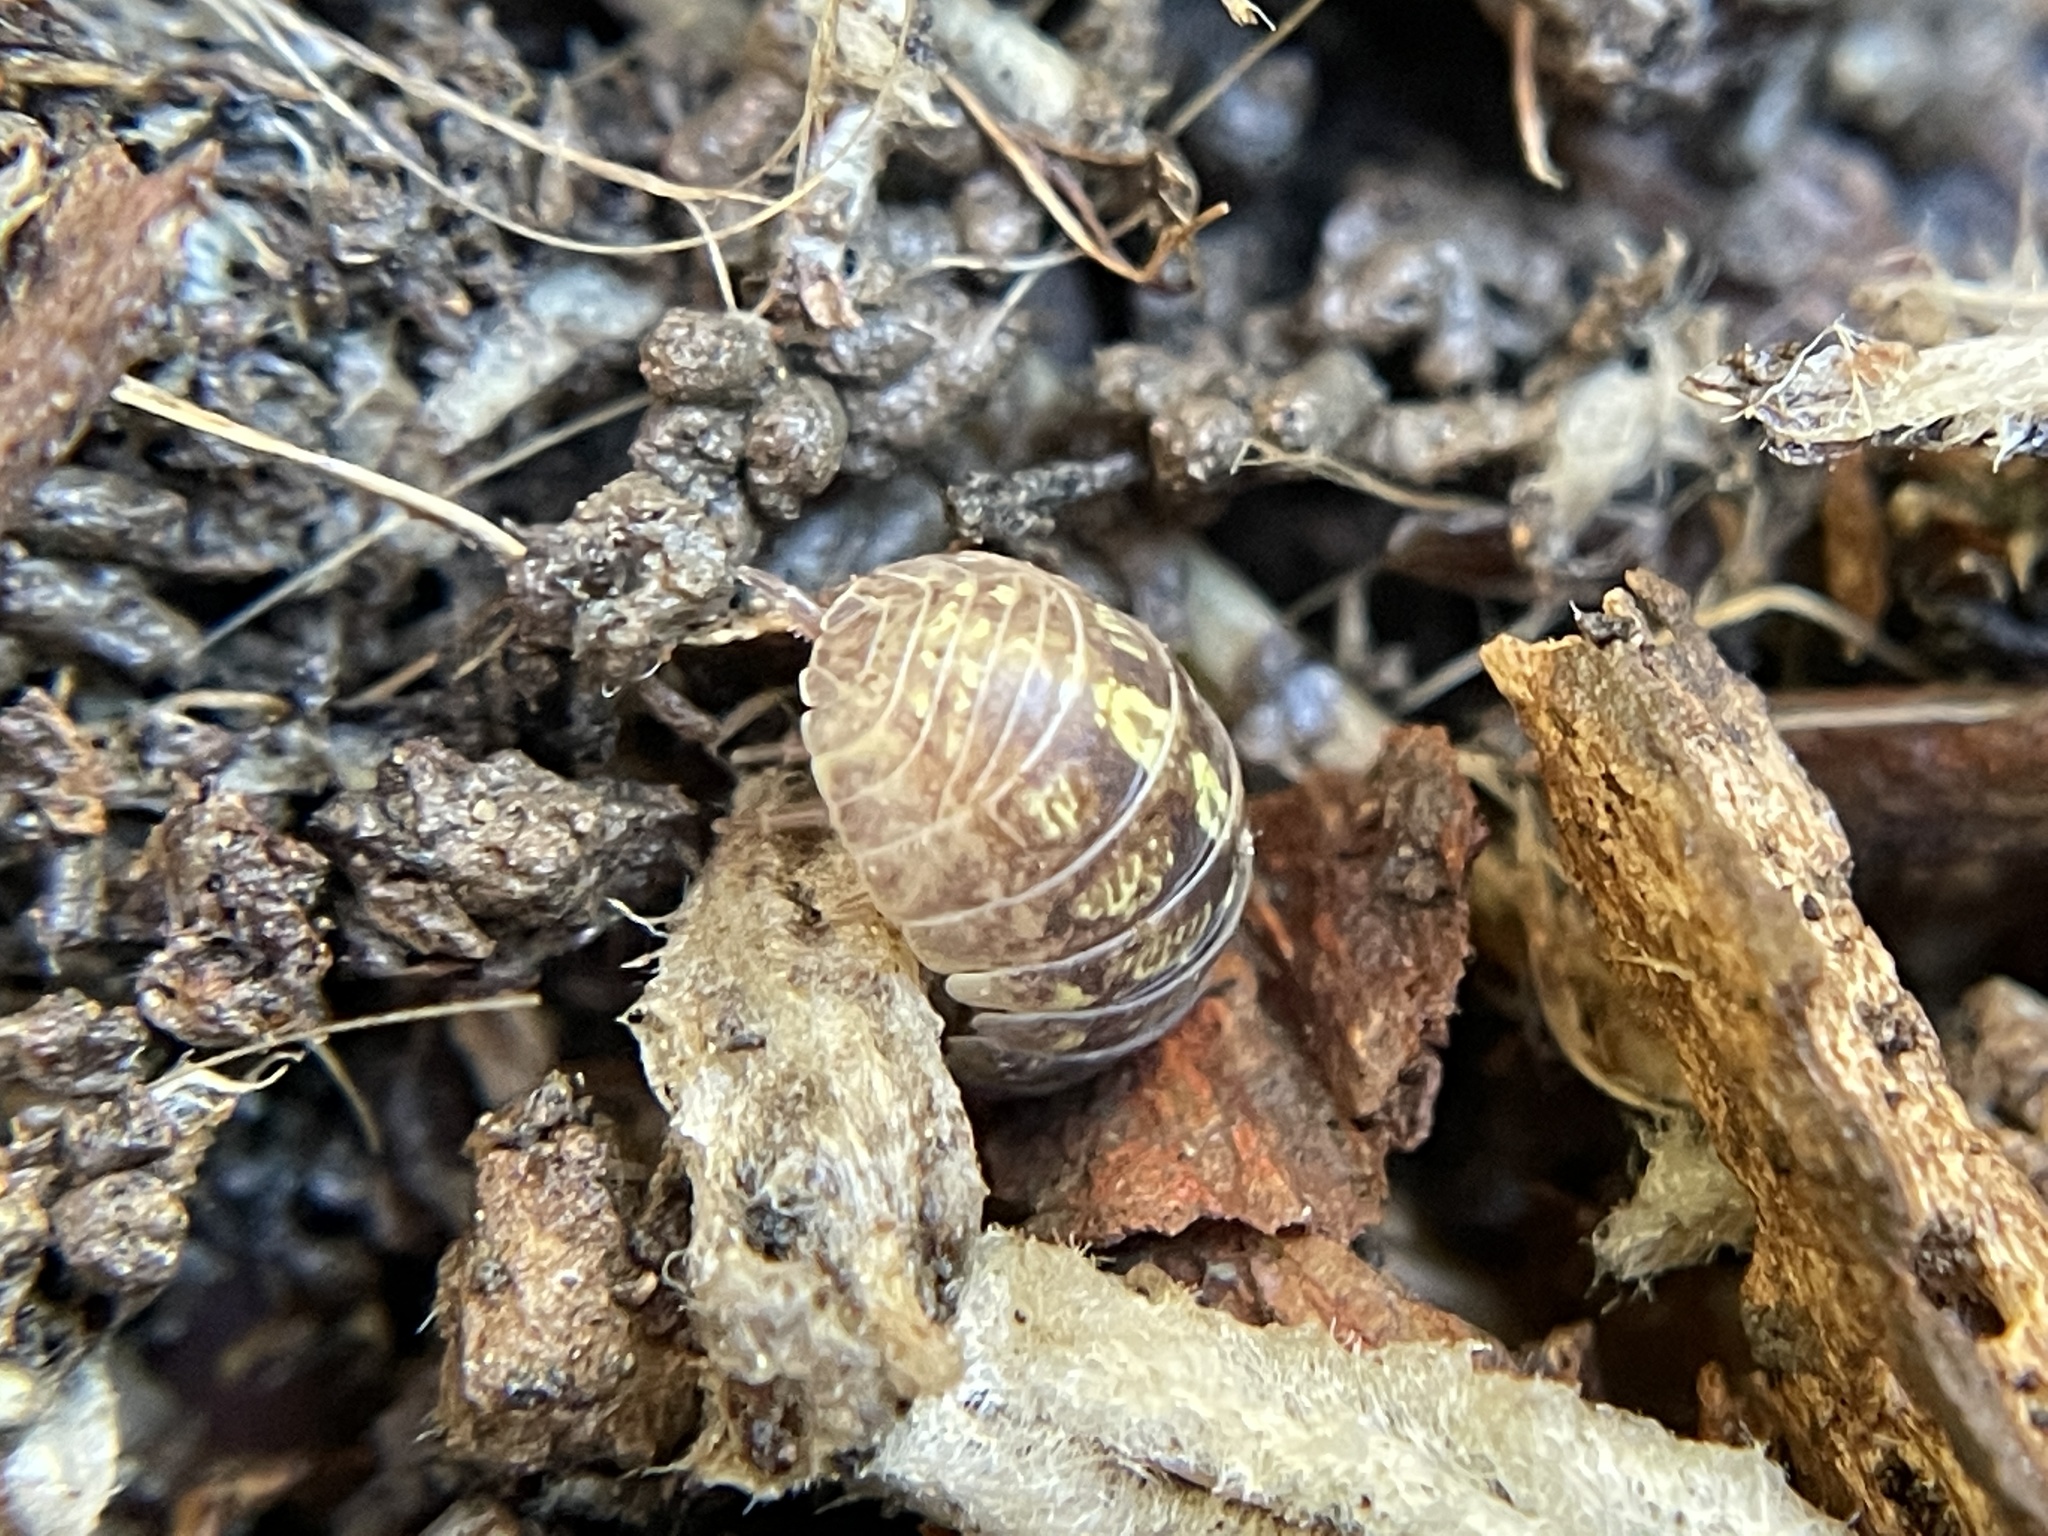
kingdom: Animalia
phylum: Arthropoda
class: Malacostraca
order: Isopoda
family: Armadillidiidae
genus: Armadillidium
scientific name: Armadillidium vulgare
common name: Common pill woodlouse
